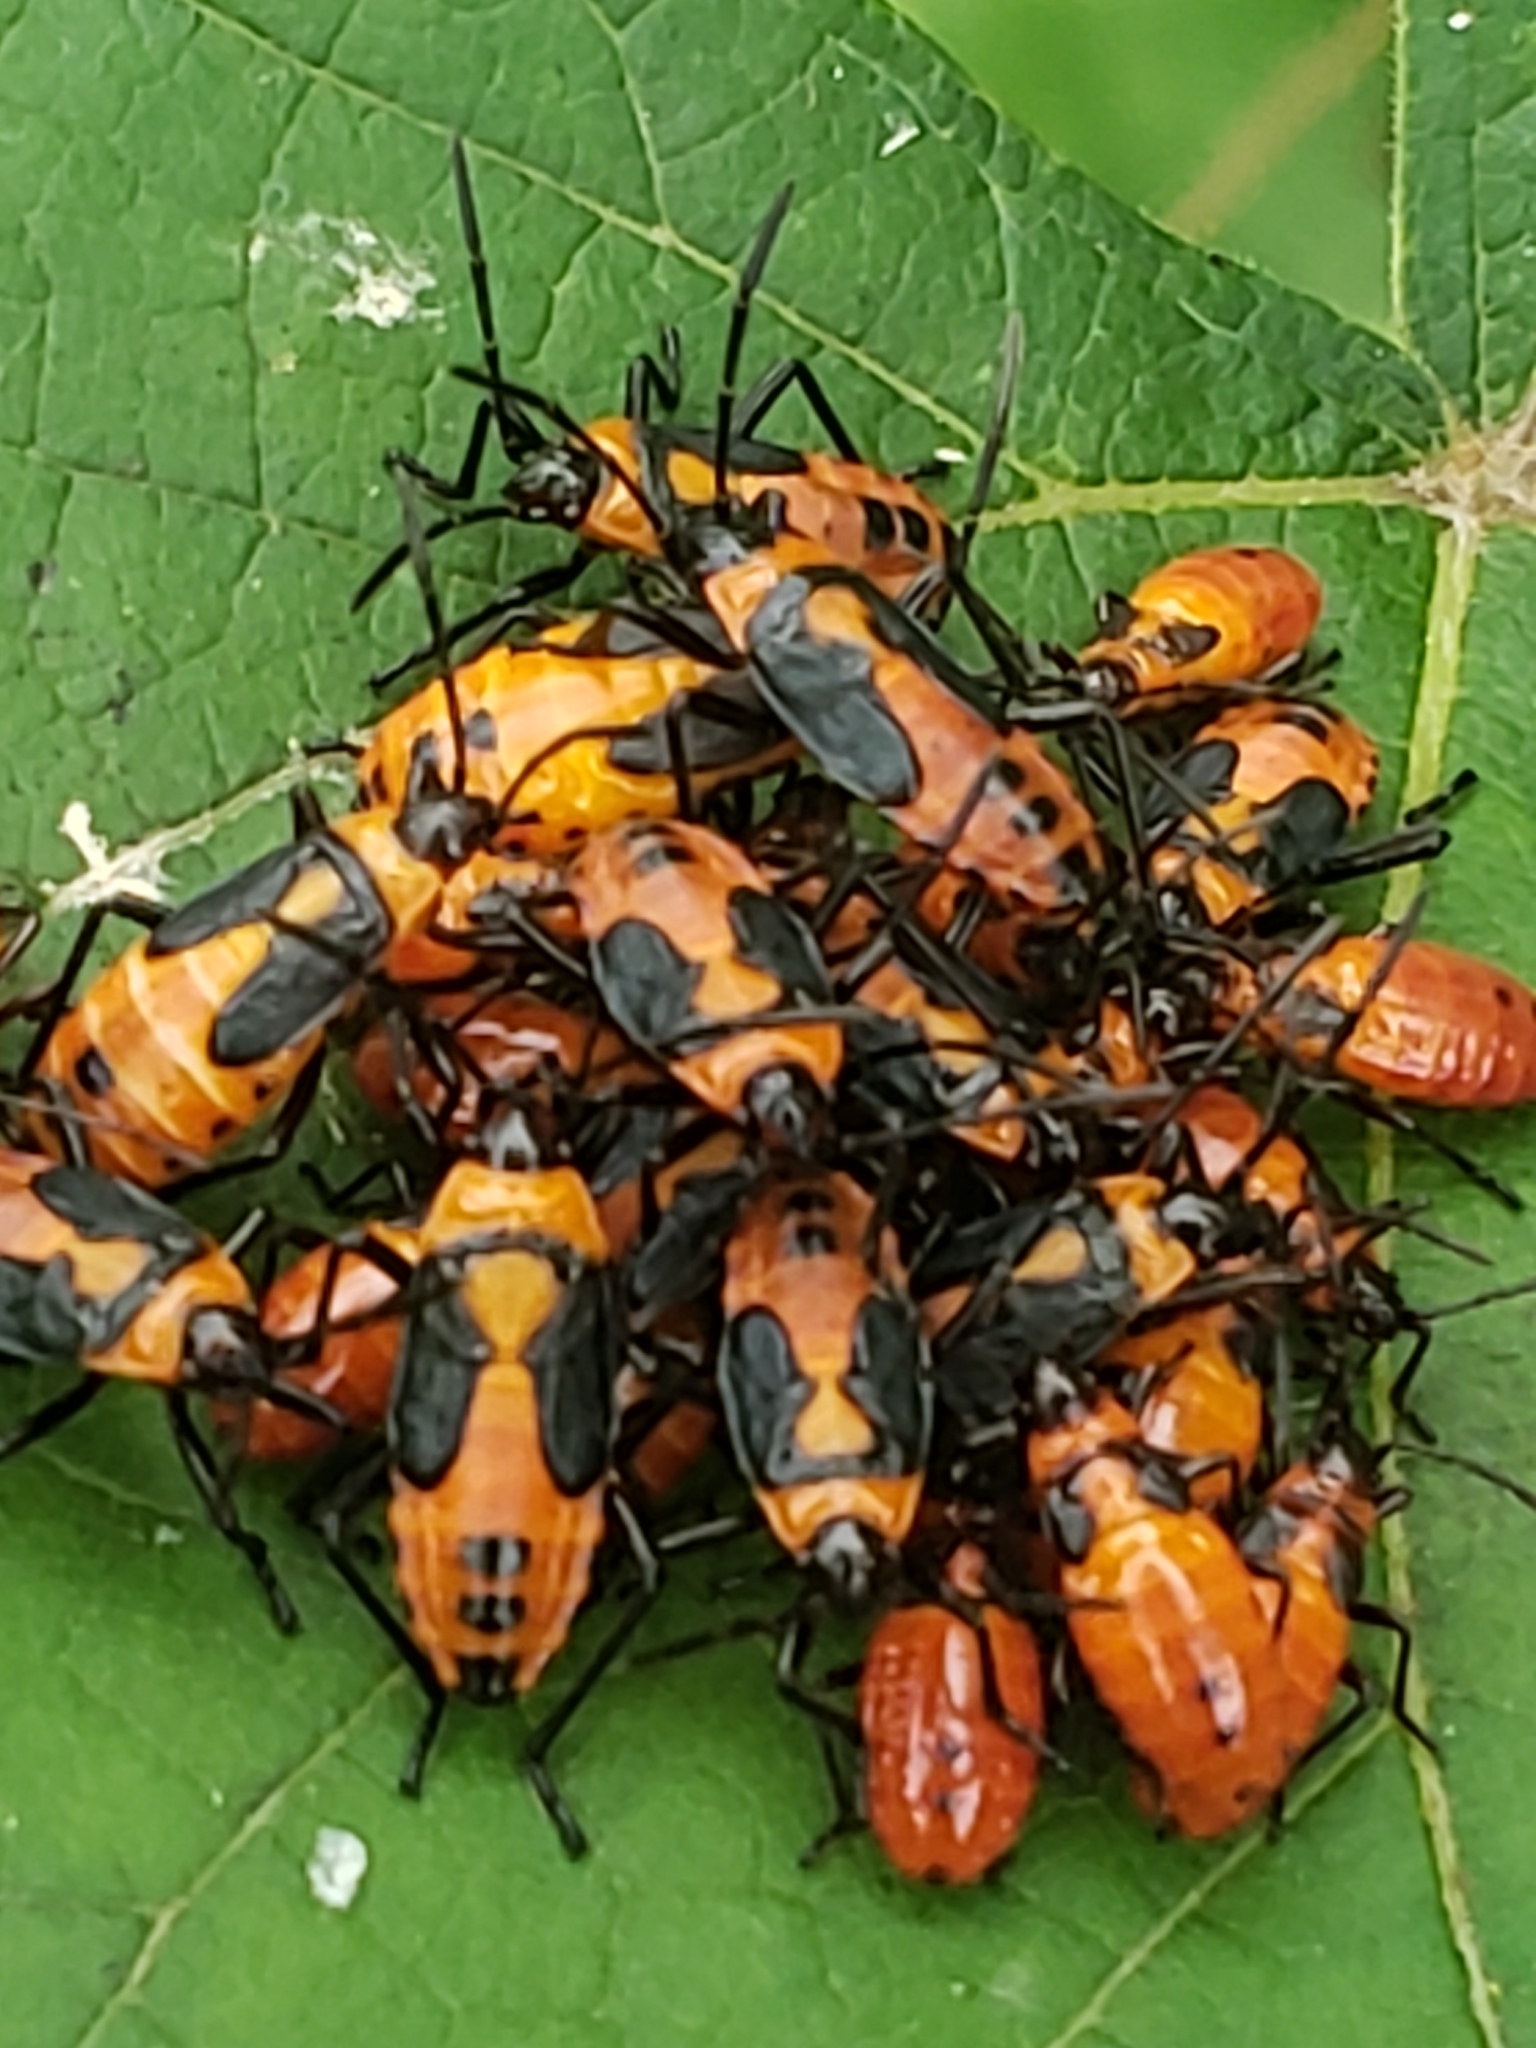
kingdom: Animalia
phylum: Arthropoda
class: Insecta
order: Hemiptera
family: Lygaeidae
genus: Oncopeltus
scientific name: Oncopeltus fasciatus
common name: Large milkweed bug
